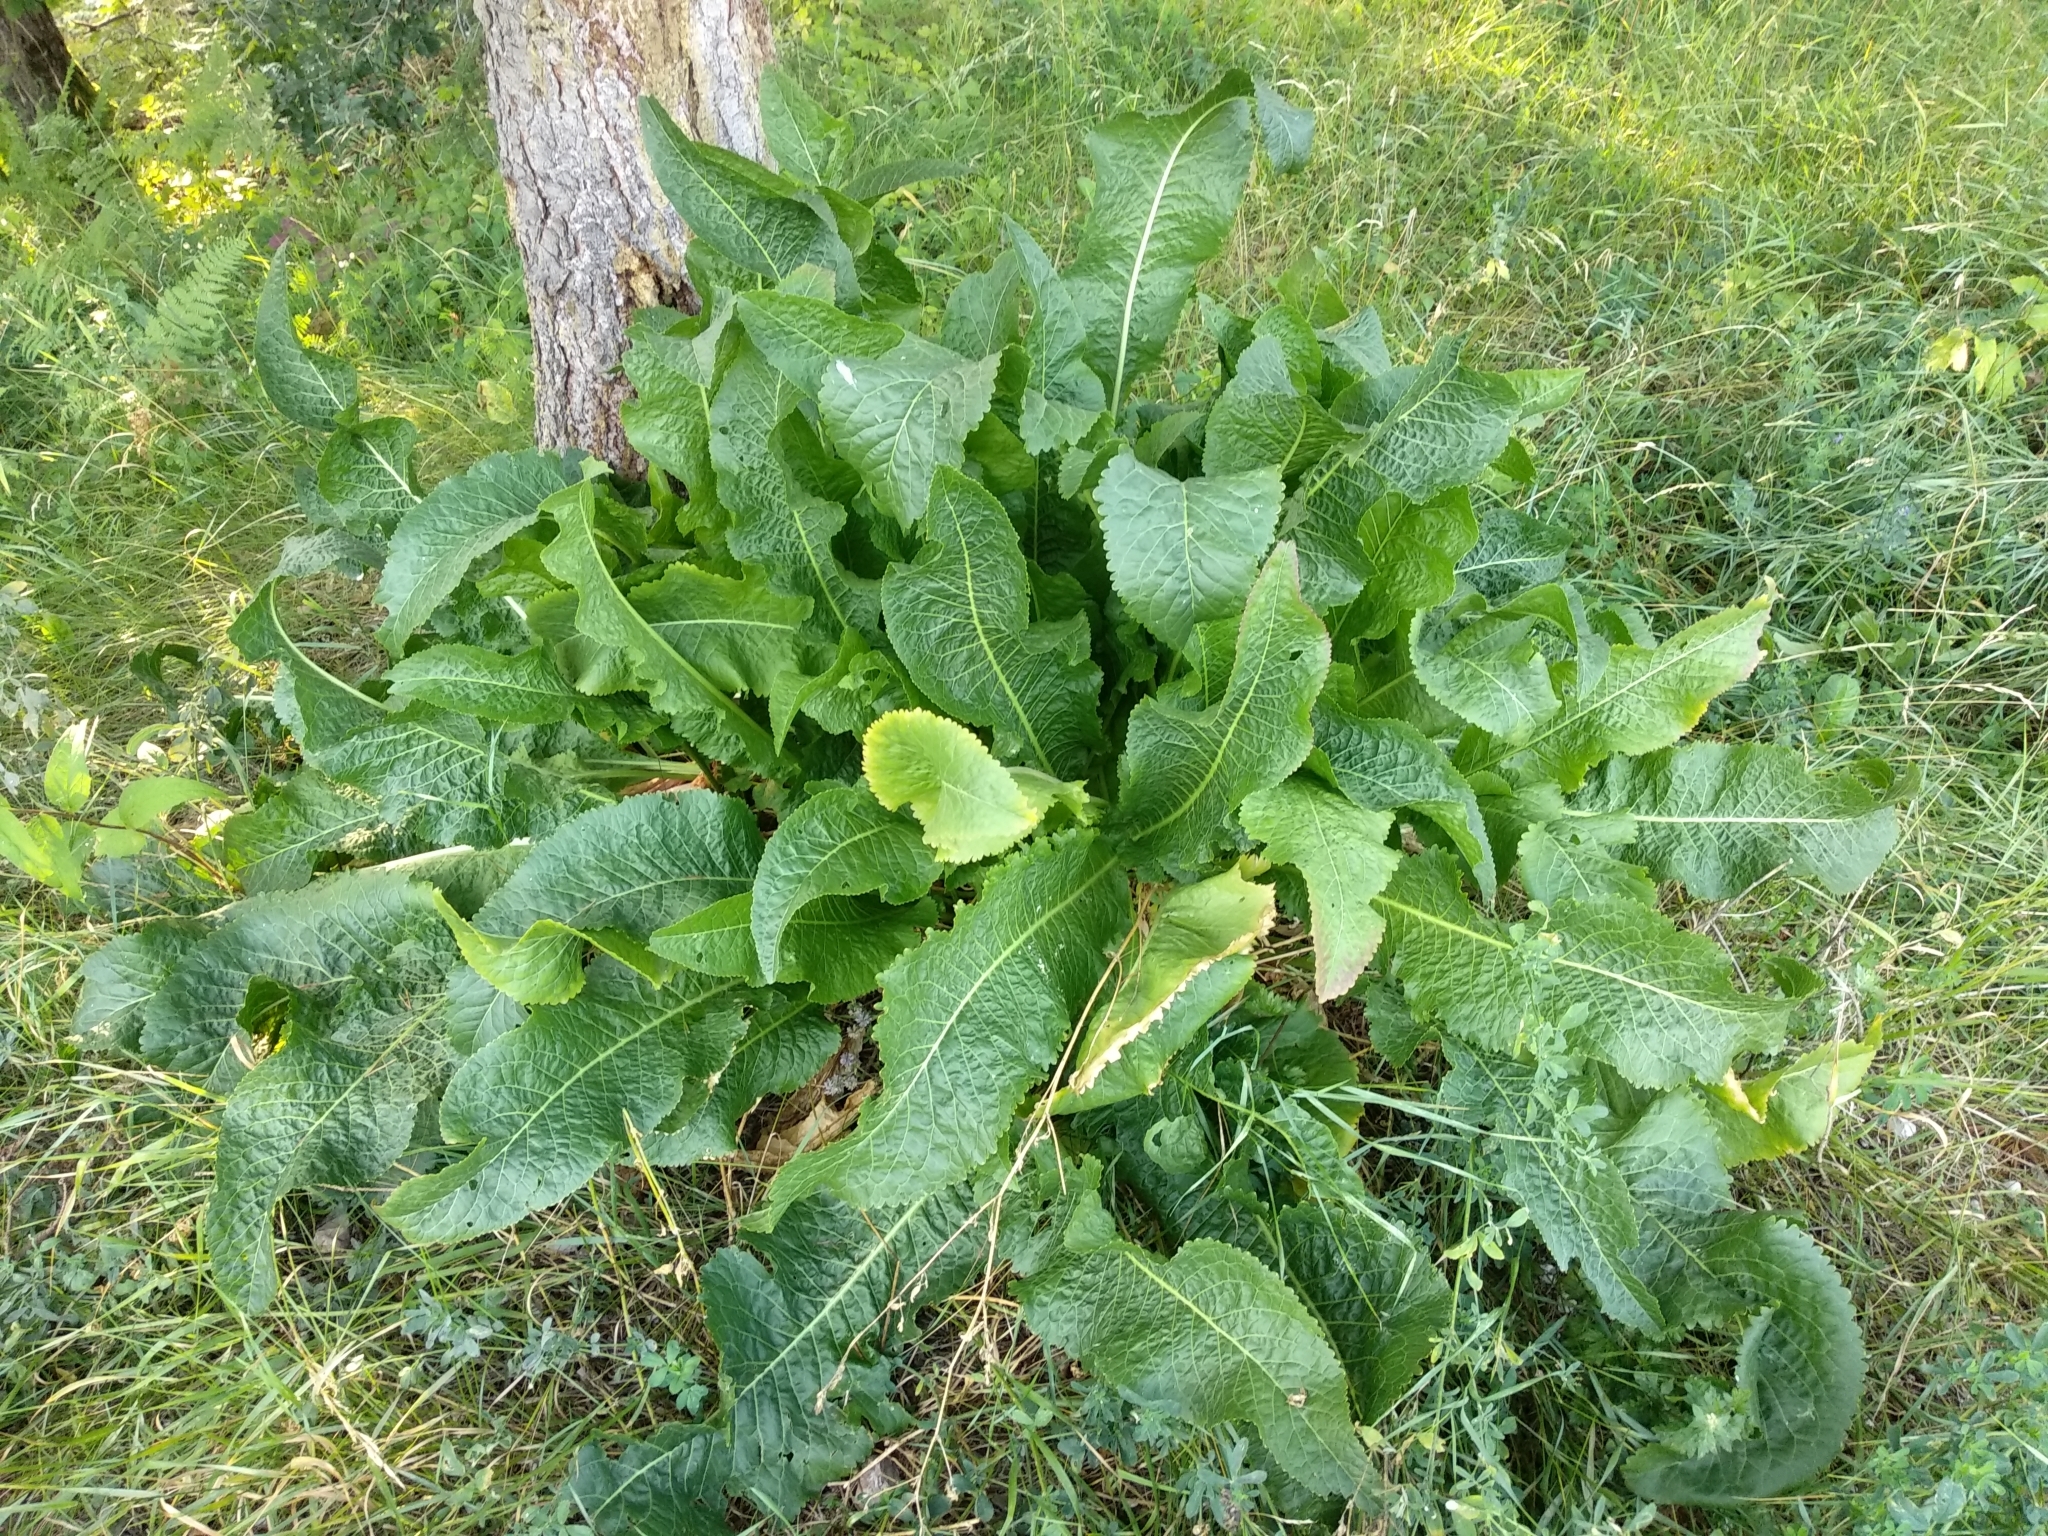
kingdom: Plantae
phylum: Tracheophyta
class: Magnoliopsida
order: Brassicales
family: Brassicaceae
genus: Armoracia
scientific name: Armoracia rusticana
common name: Horseradish
